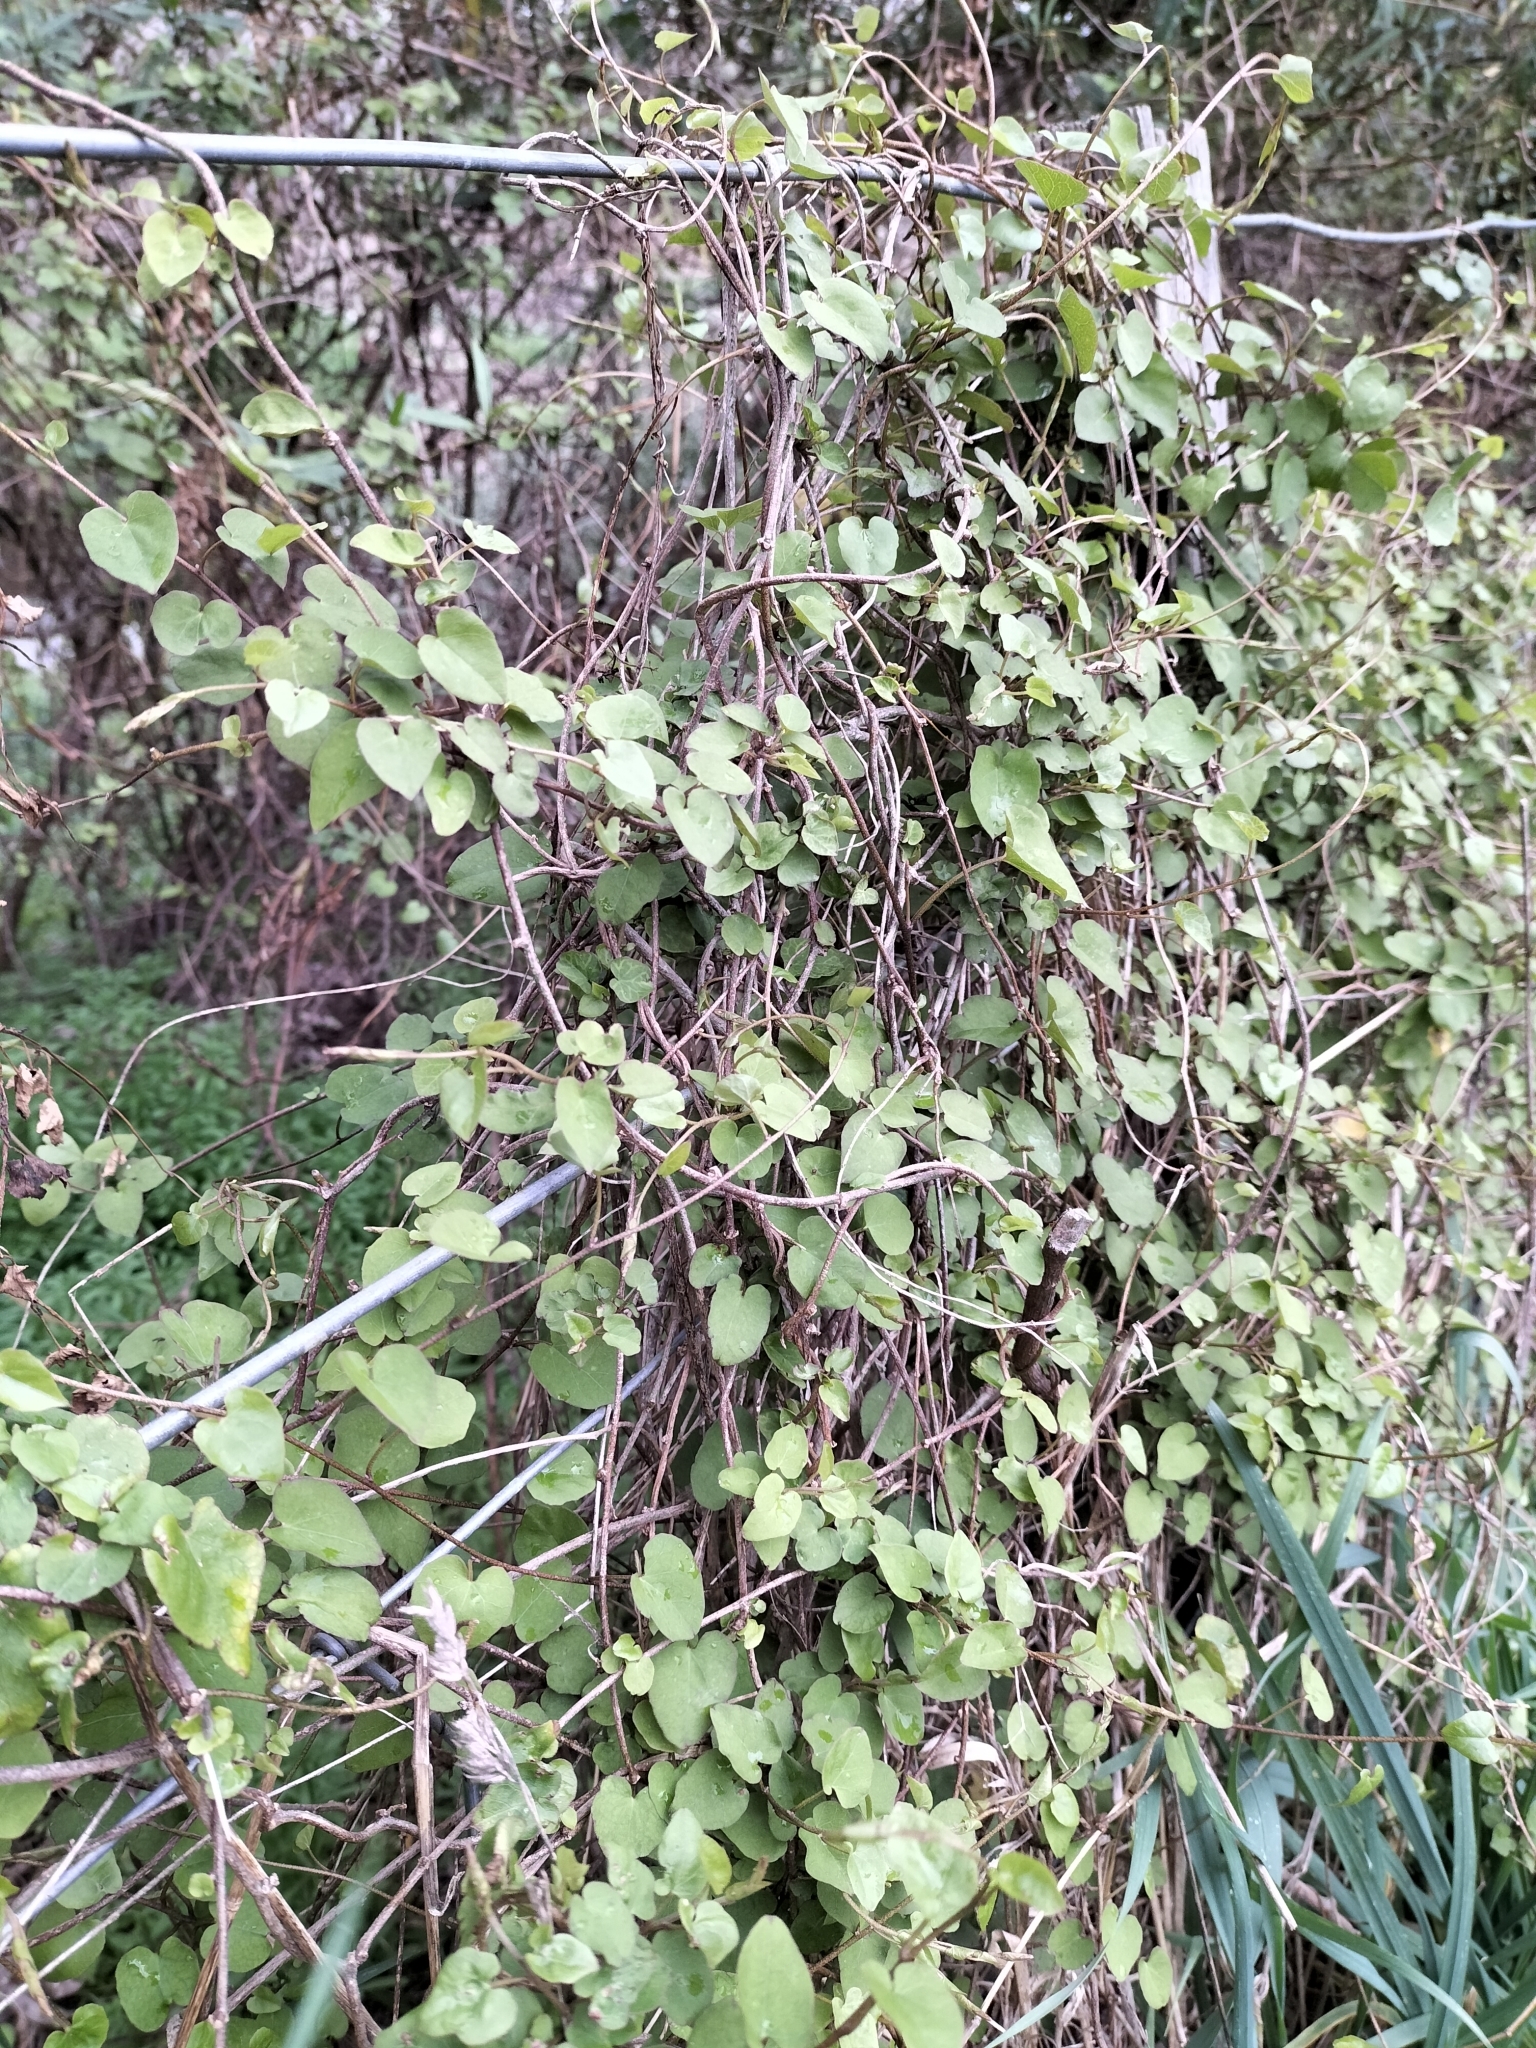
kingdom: Plantae
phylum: Tracheophyta
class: Magnoliopsida
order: Solanales
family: Convolvulaceae
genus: Calystegia
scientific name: Calystegia tuguriorum
